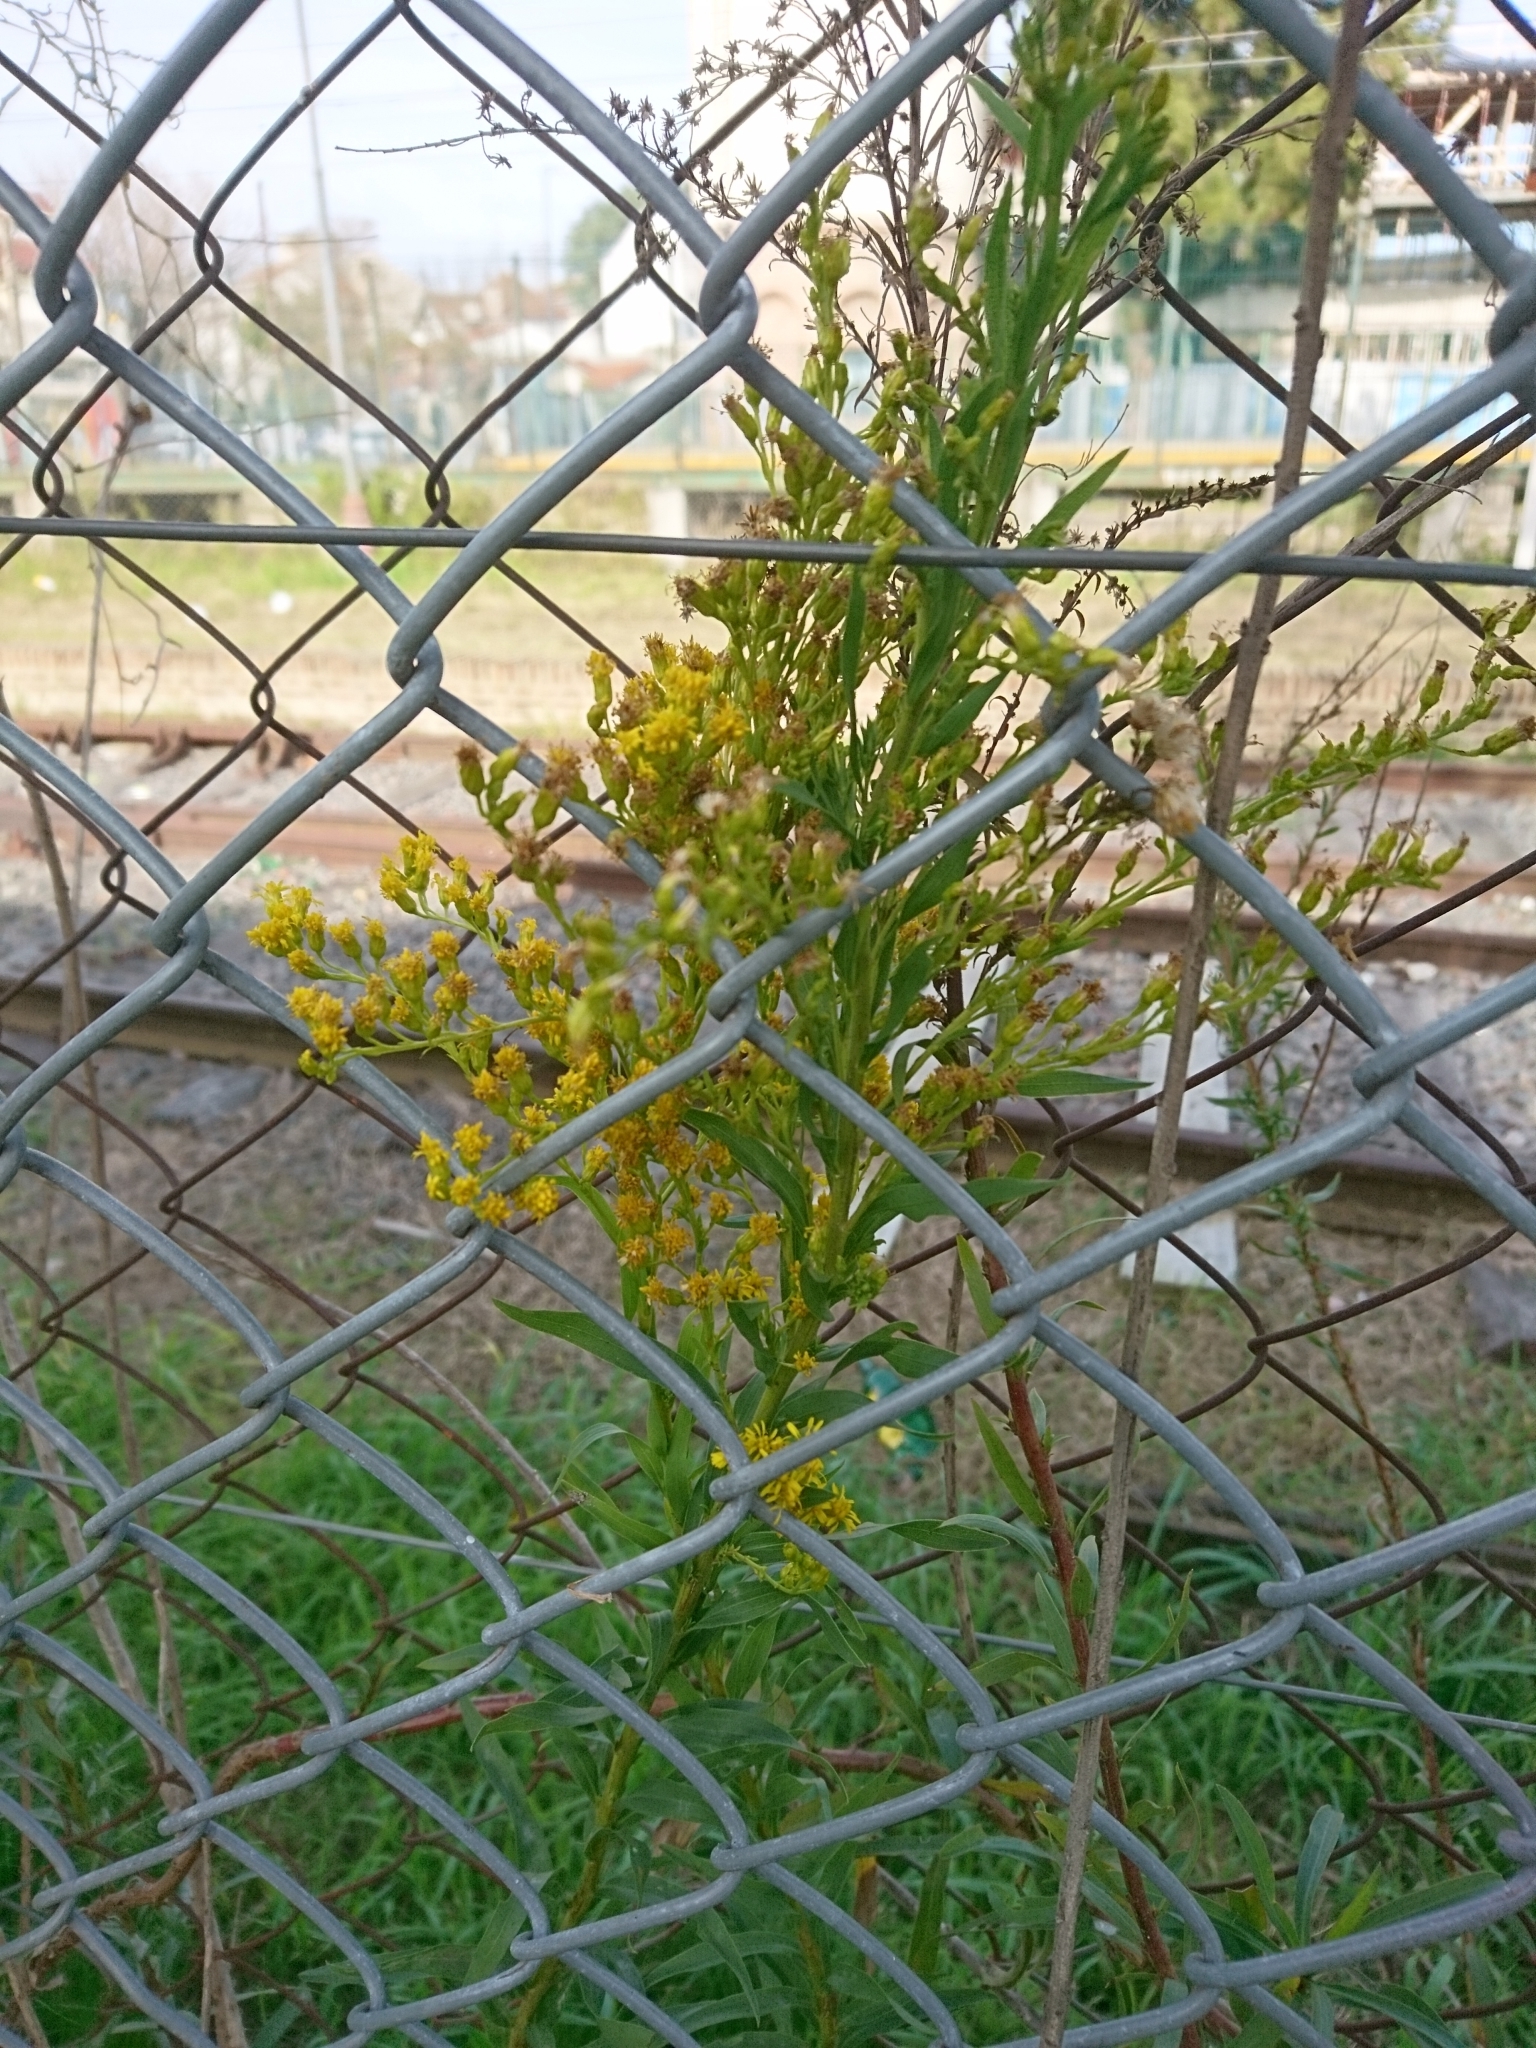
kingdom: Plantae
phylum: Tracheophyta
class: Magnoliopsida
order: Asterales
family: Asteraceae
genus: Solidago
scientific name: Solidago chilensis
